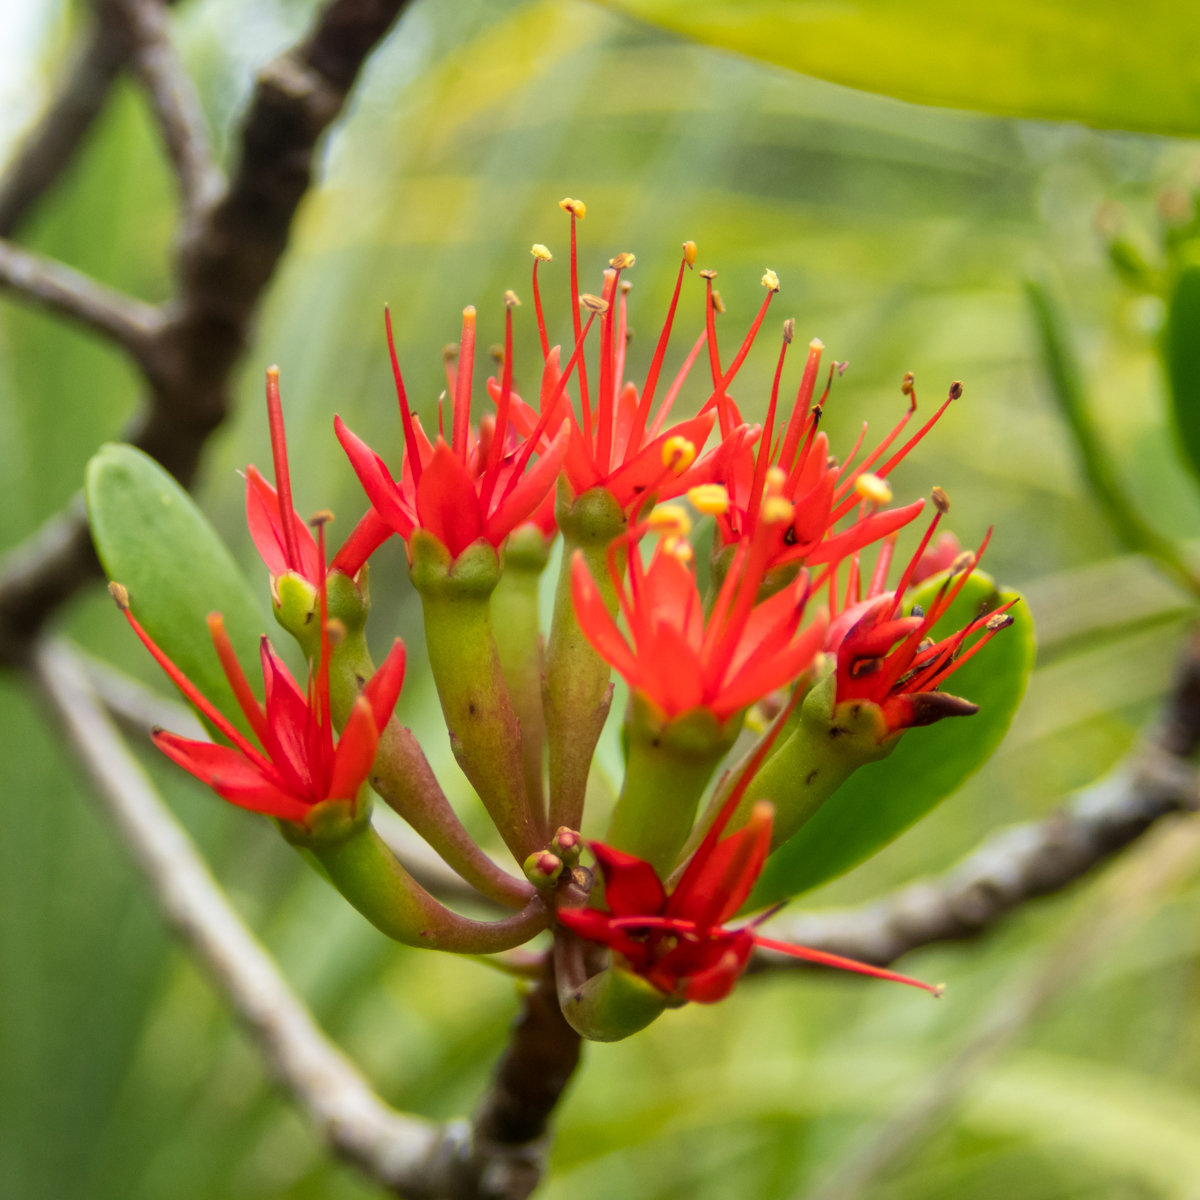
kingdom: Plantae
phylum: Tracheophyta
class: Magnoliopsida
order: Myrtales
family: Combretaceae
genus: Lumnitzera
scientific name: Lumnitzera littorea
